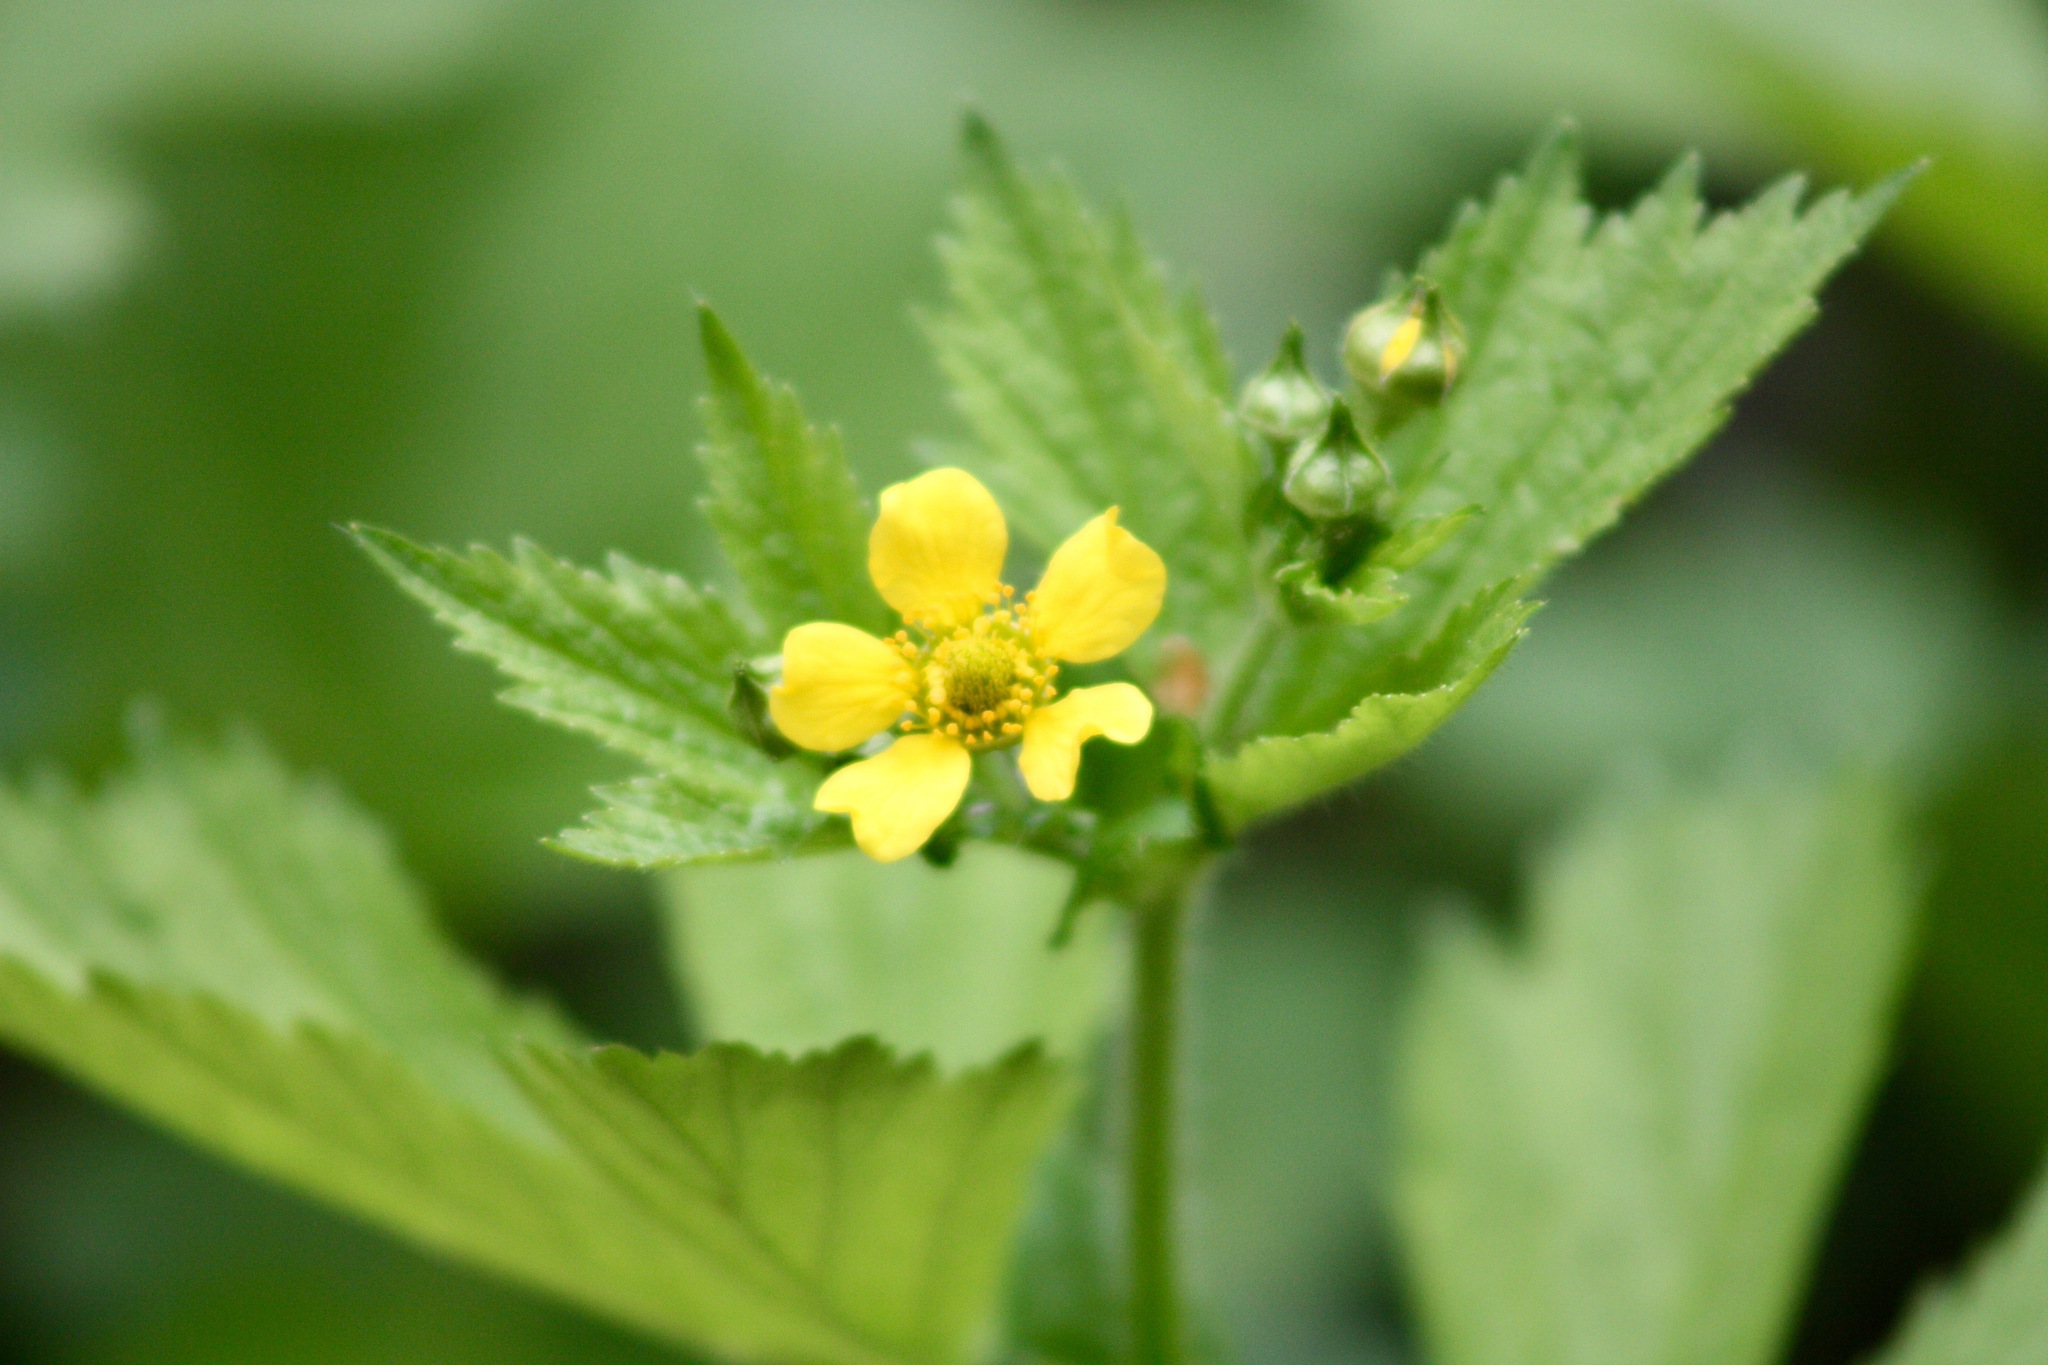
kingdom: Plantae
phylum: Tracheophyta
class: Magnoliopsida
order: Rosales
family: Rosaceae
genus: Geum
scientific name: Geum macrophyllum
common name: Large-leaved avens
